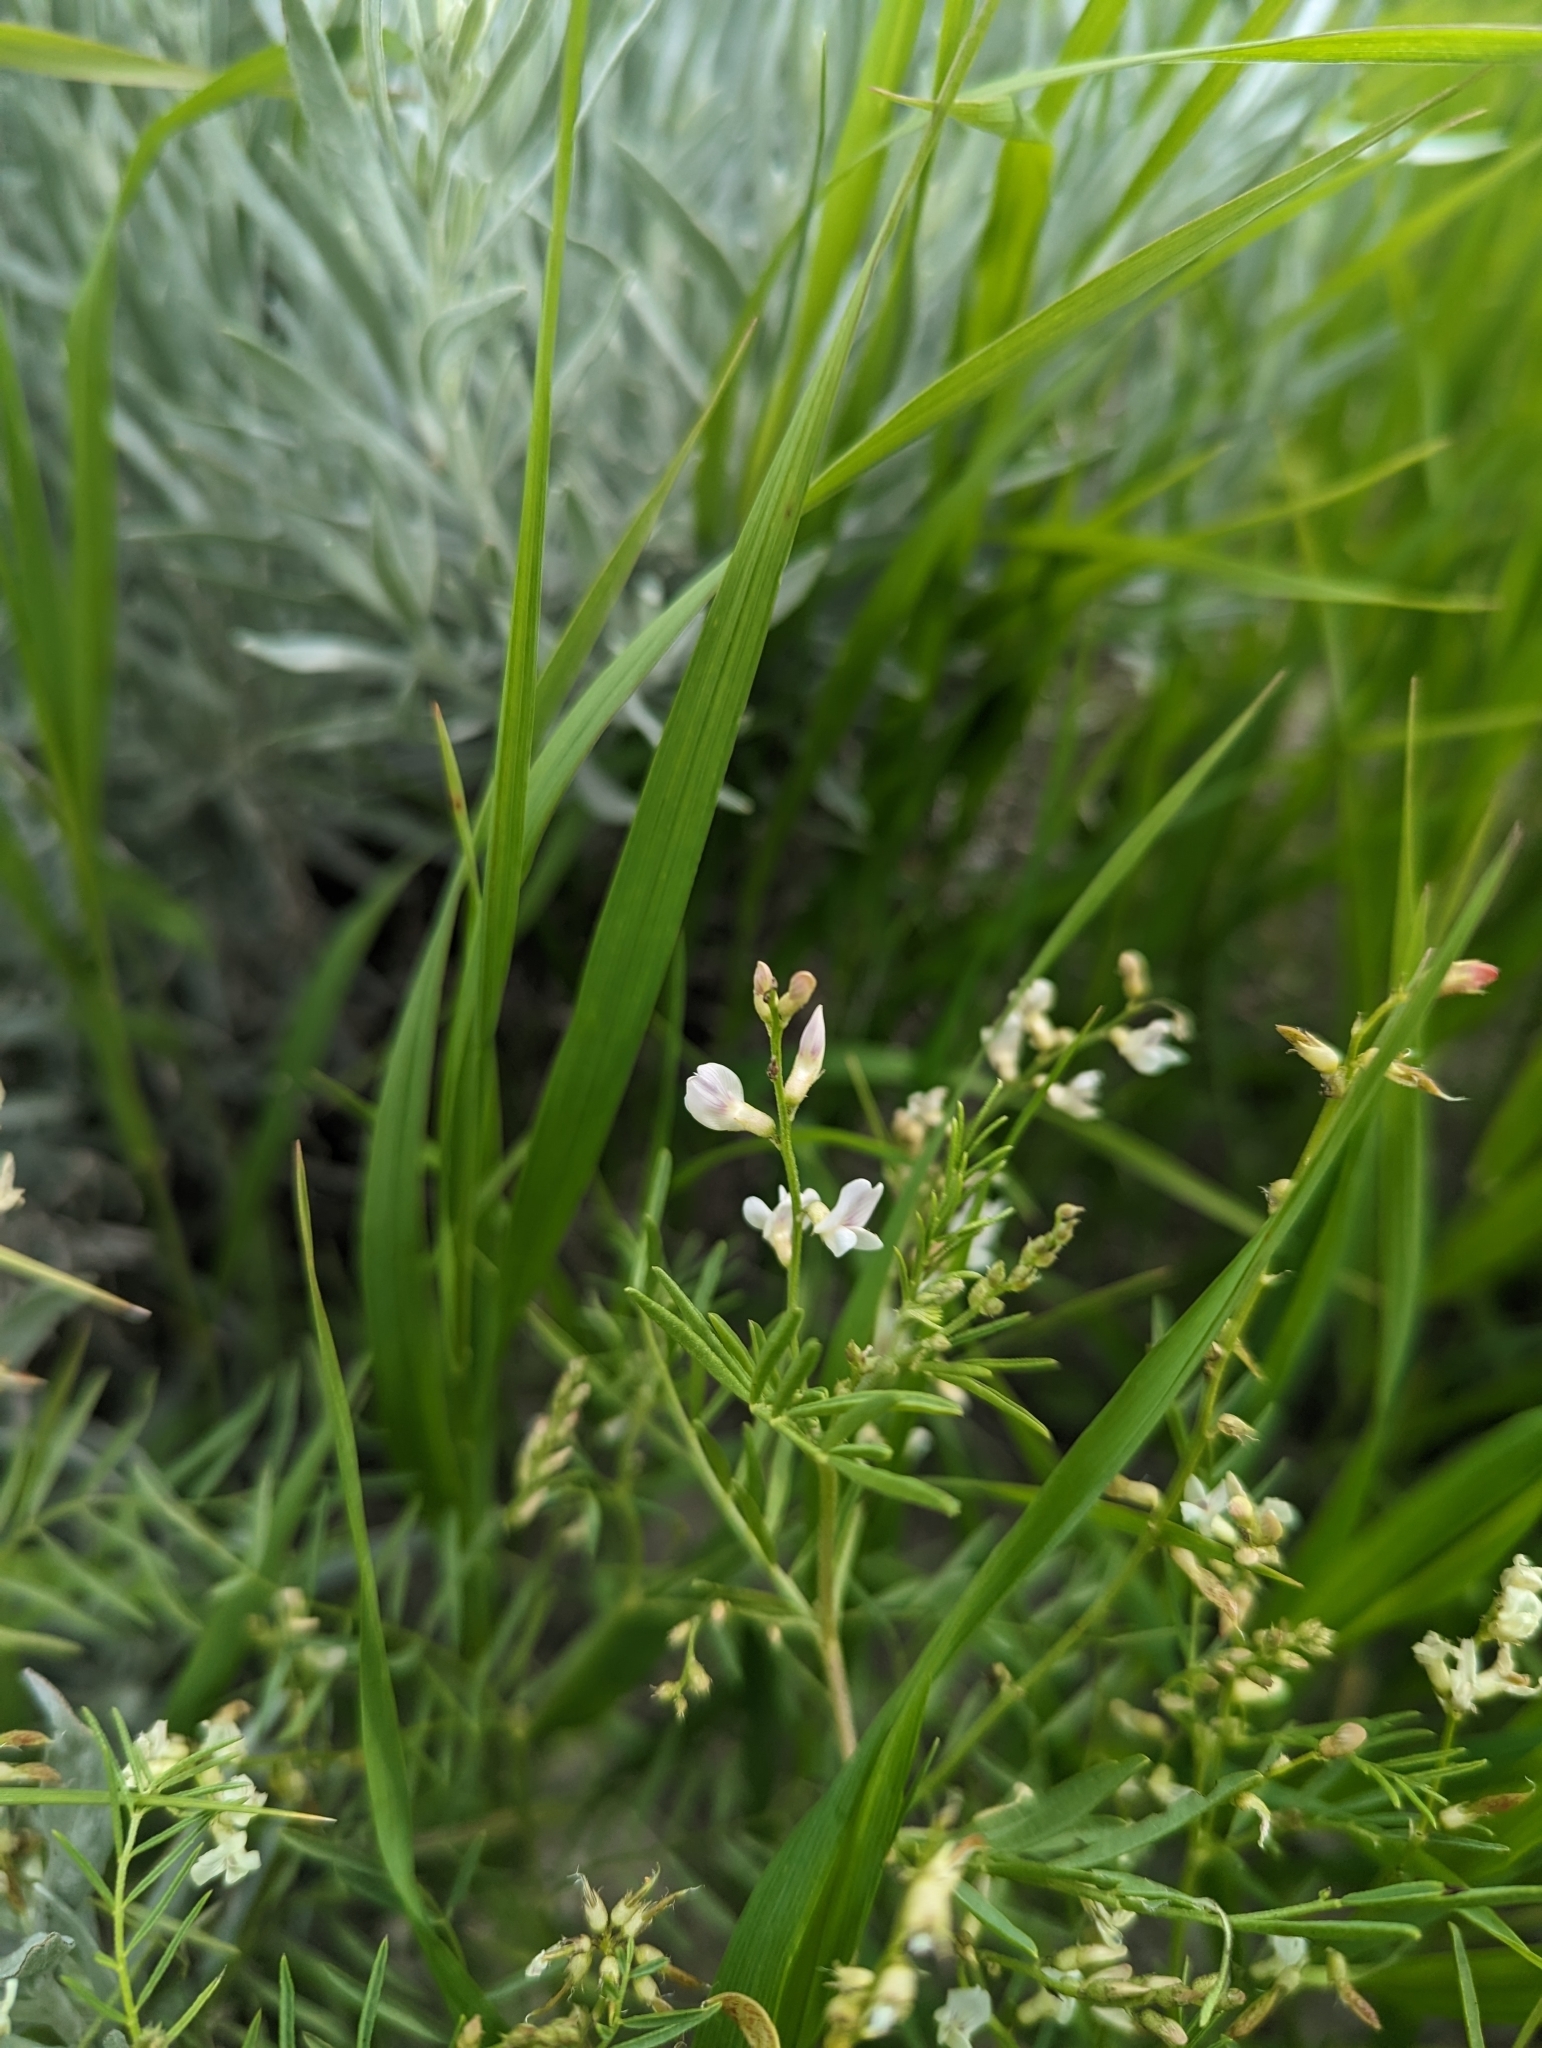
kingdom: Plantae
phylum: Tracheophyta
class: Magnoliopsida
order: Fabales
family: Fabaceae
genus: Astragalus
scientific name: Astragalus tenellus
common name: Pulse milk-vetch
